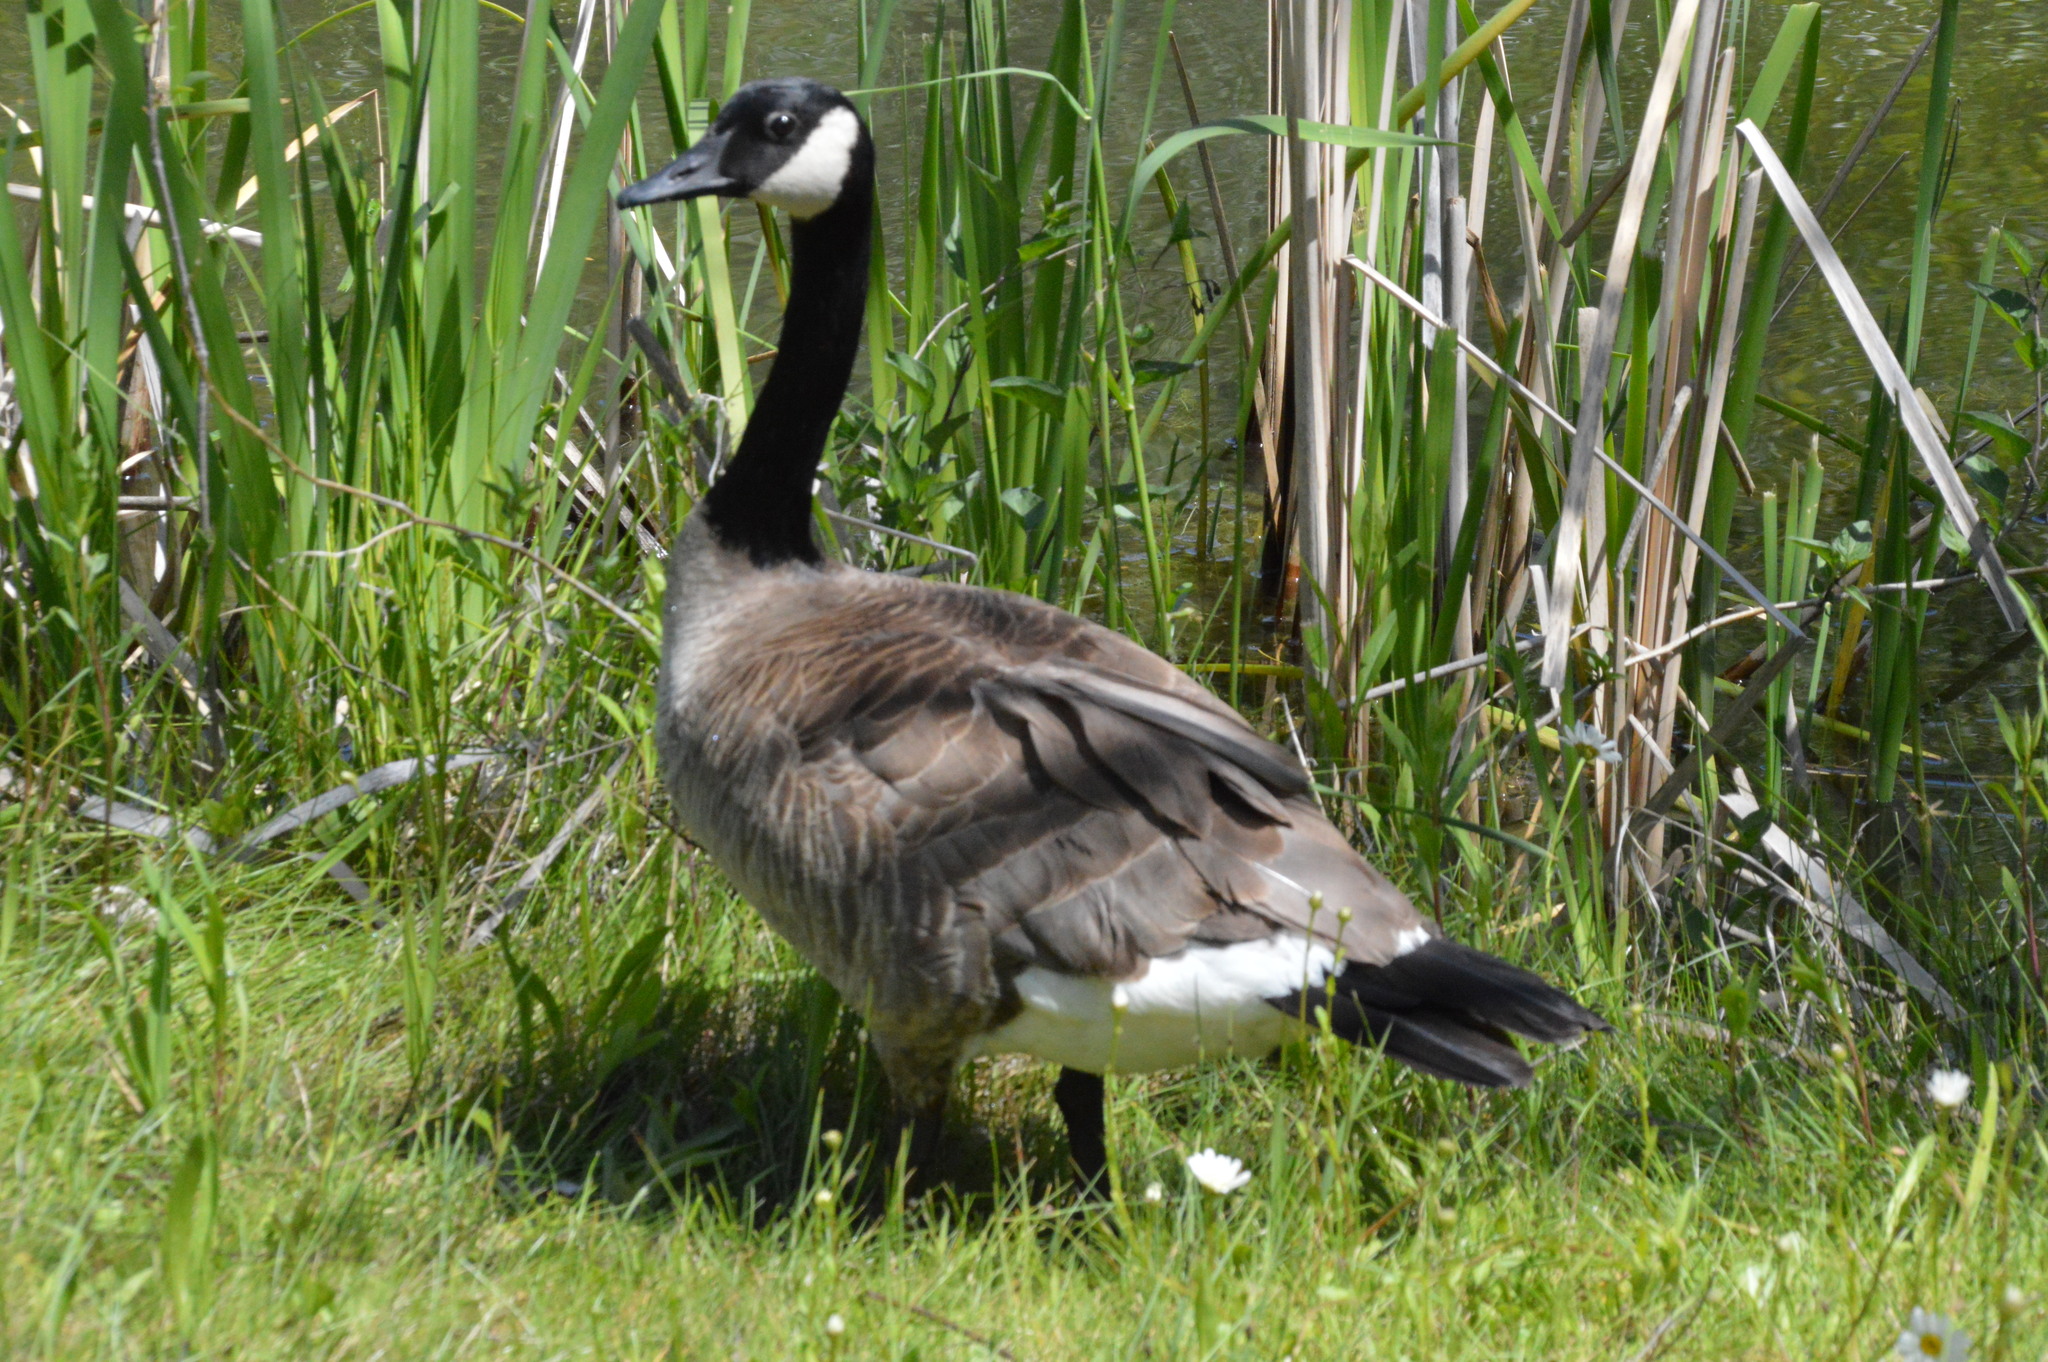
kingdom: Animalia
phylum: Chordata
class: Aves
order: Anseriformes
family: Anatidae
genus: Branta
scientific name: Branta canadensis
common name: Canada goose
